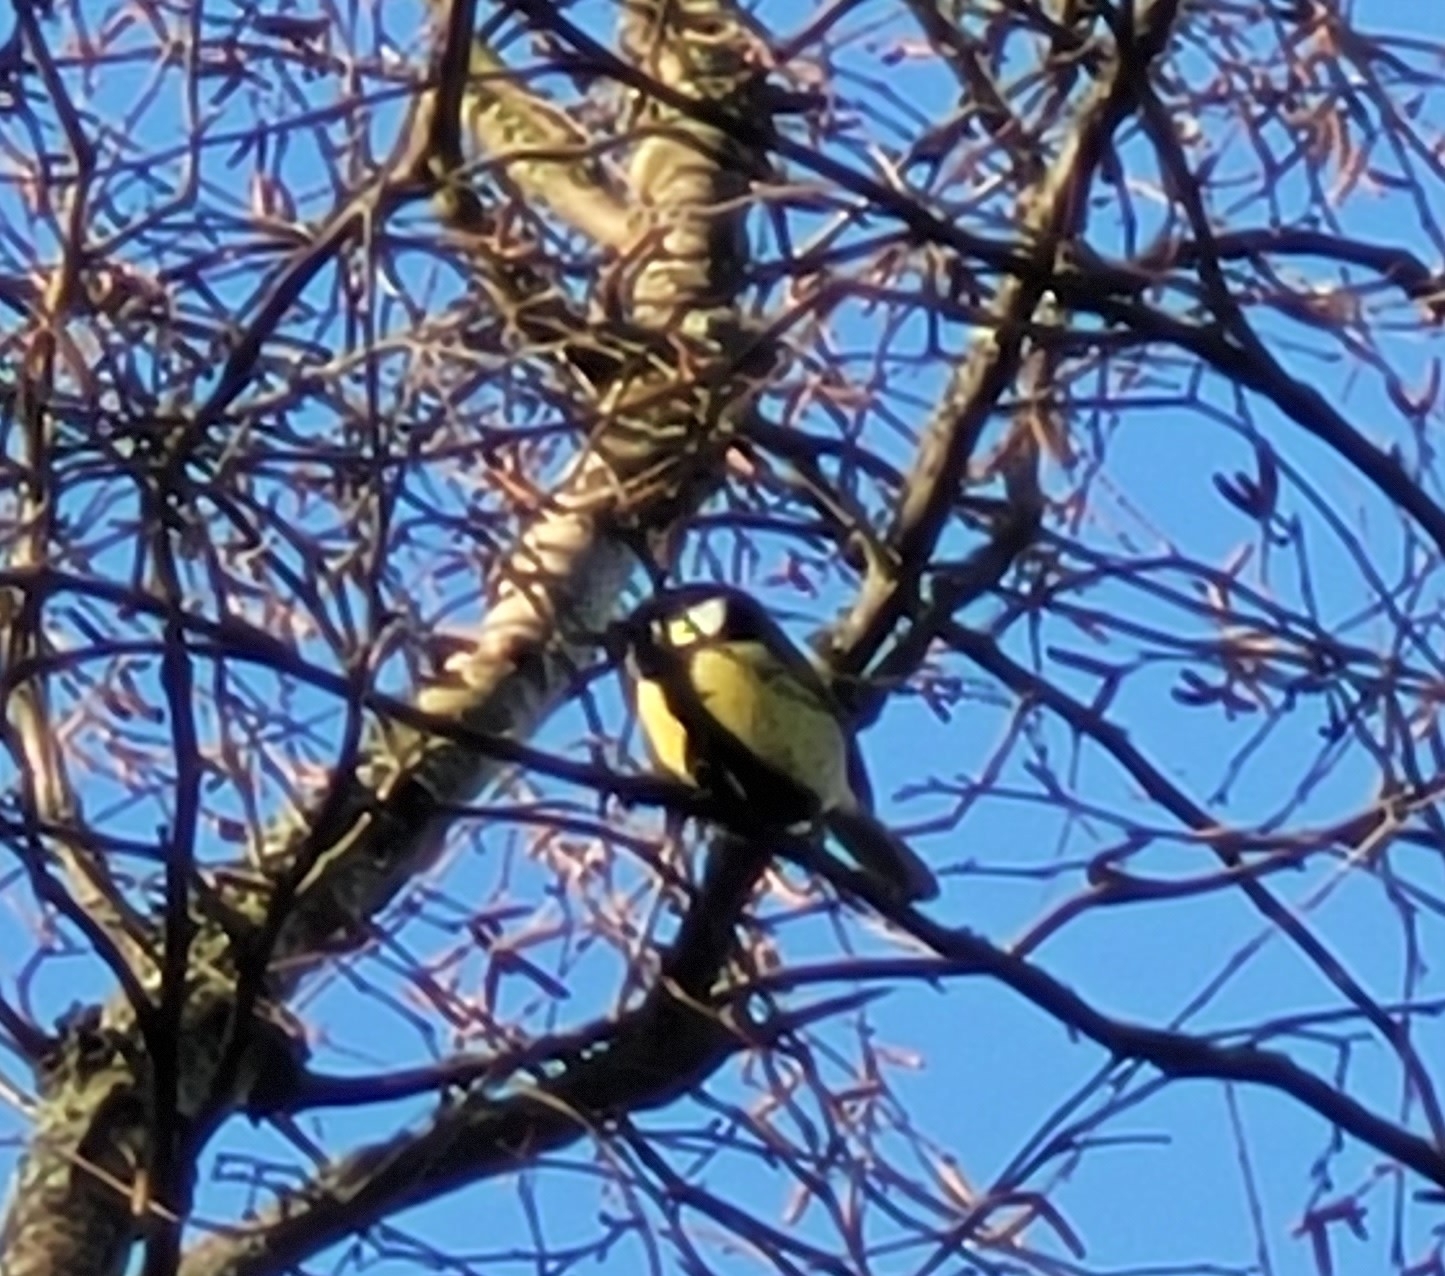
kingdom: Animalia
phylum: Chordata
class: Aves
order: Passeriformes
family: Paridae
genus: Parus
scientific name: Parus major
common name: Great tit
